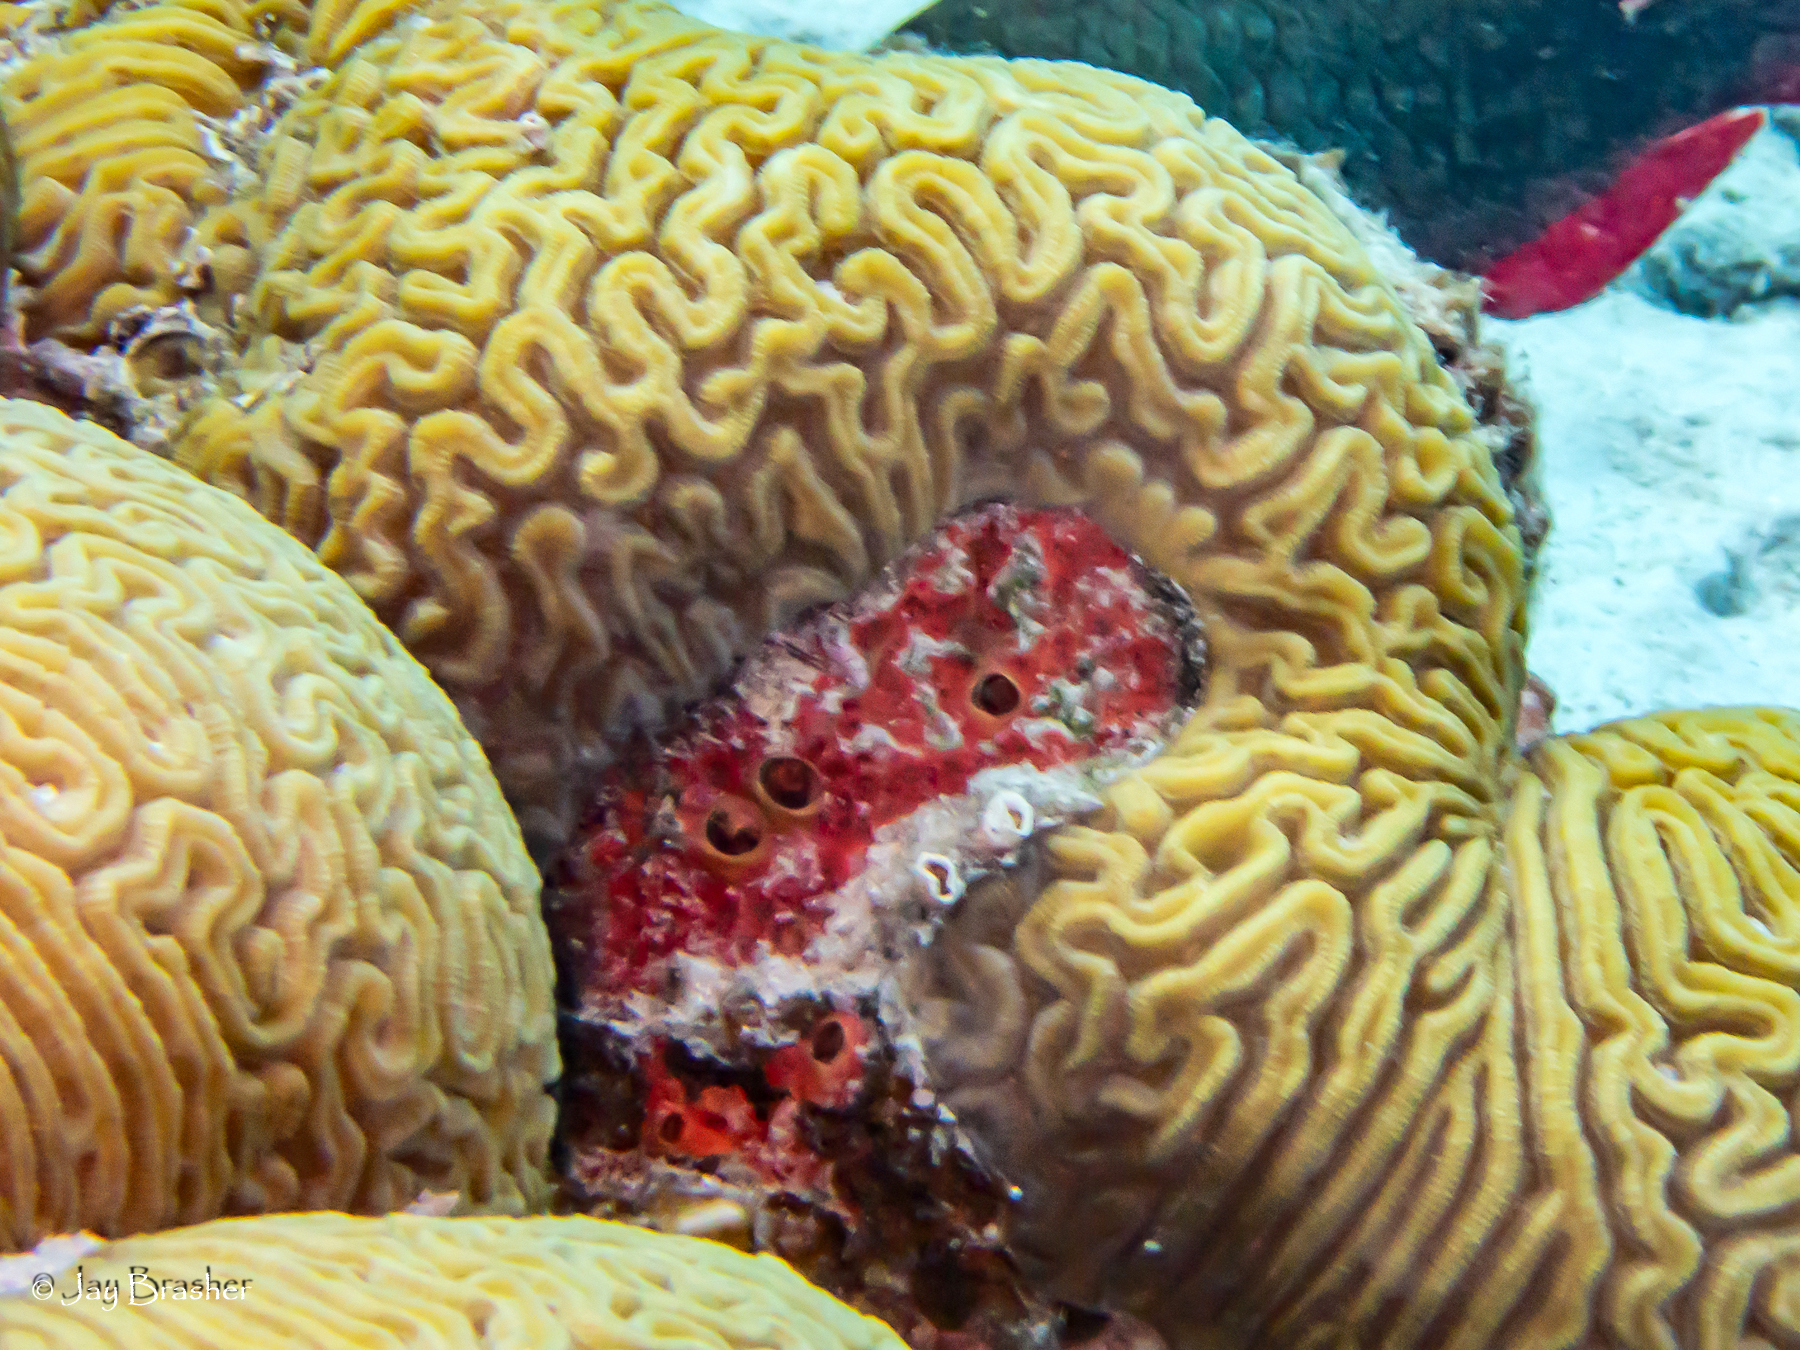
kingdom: Animalia
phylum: Porifera
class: Demospongiae
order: Clionaida
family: Clionaidae
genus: Cliothosa
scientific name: Cliothosa delitrix
